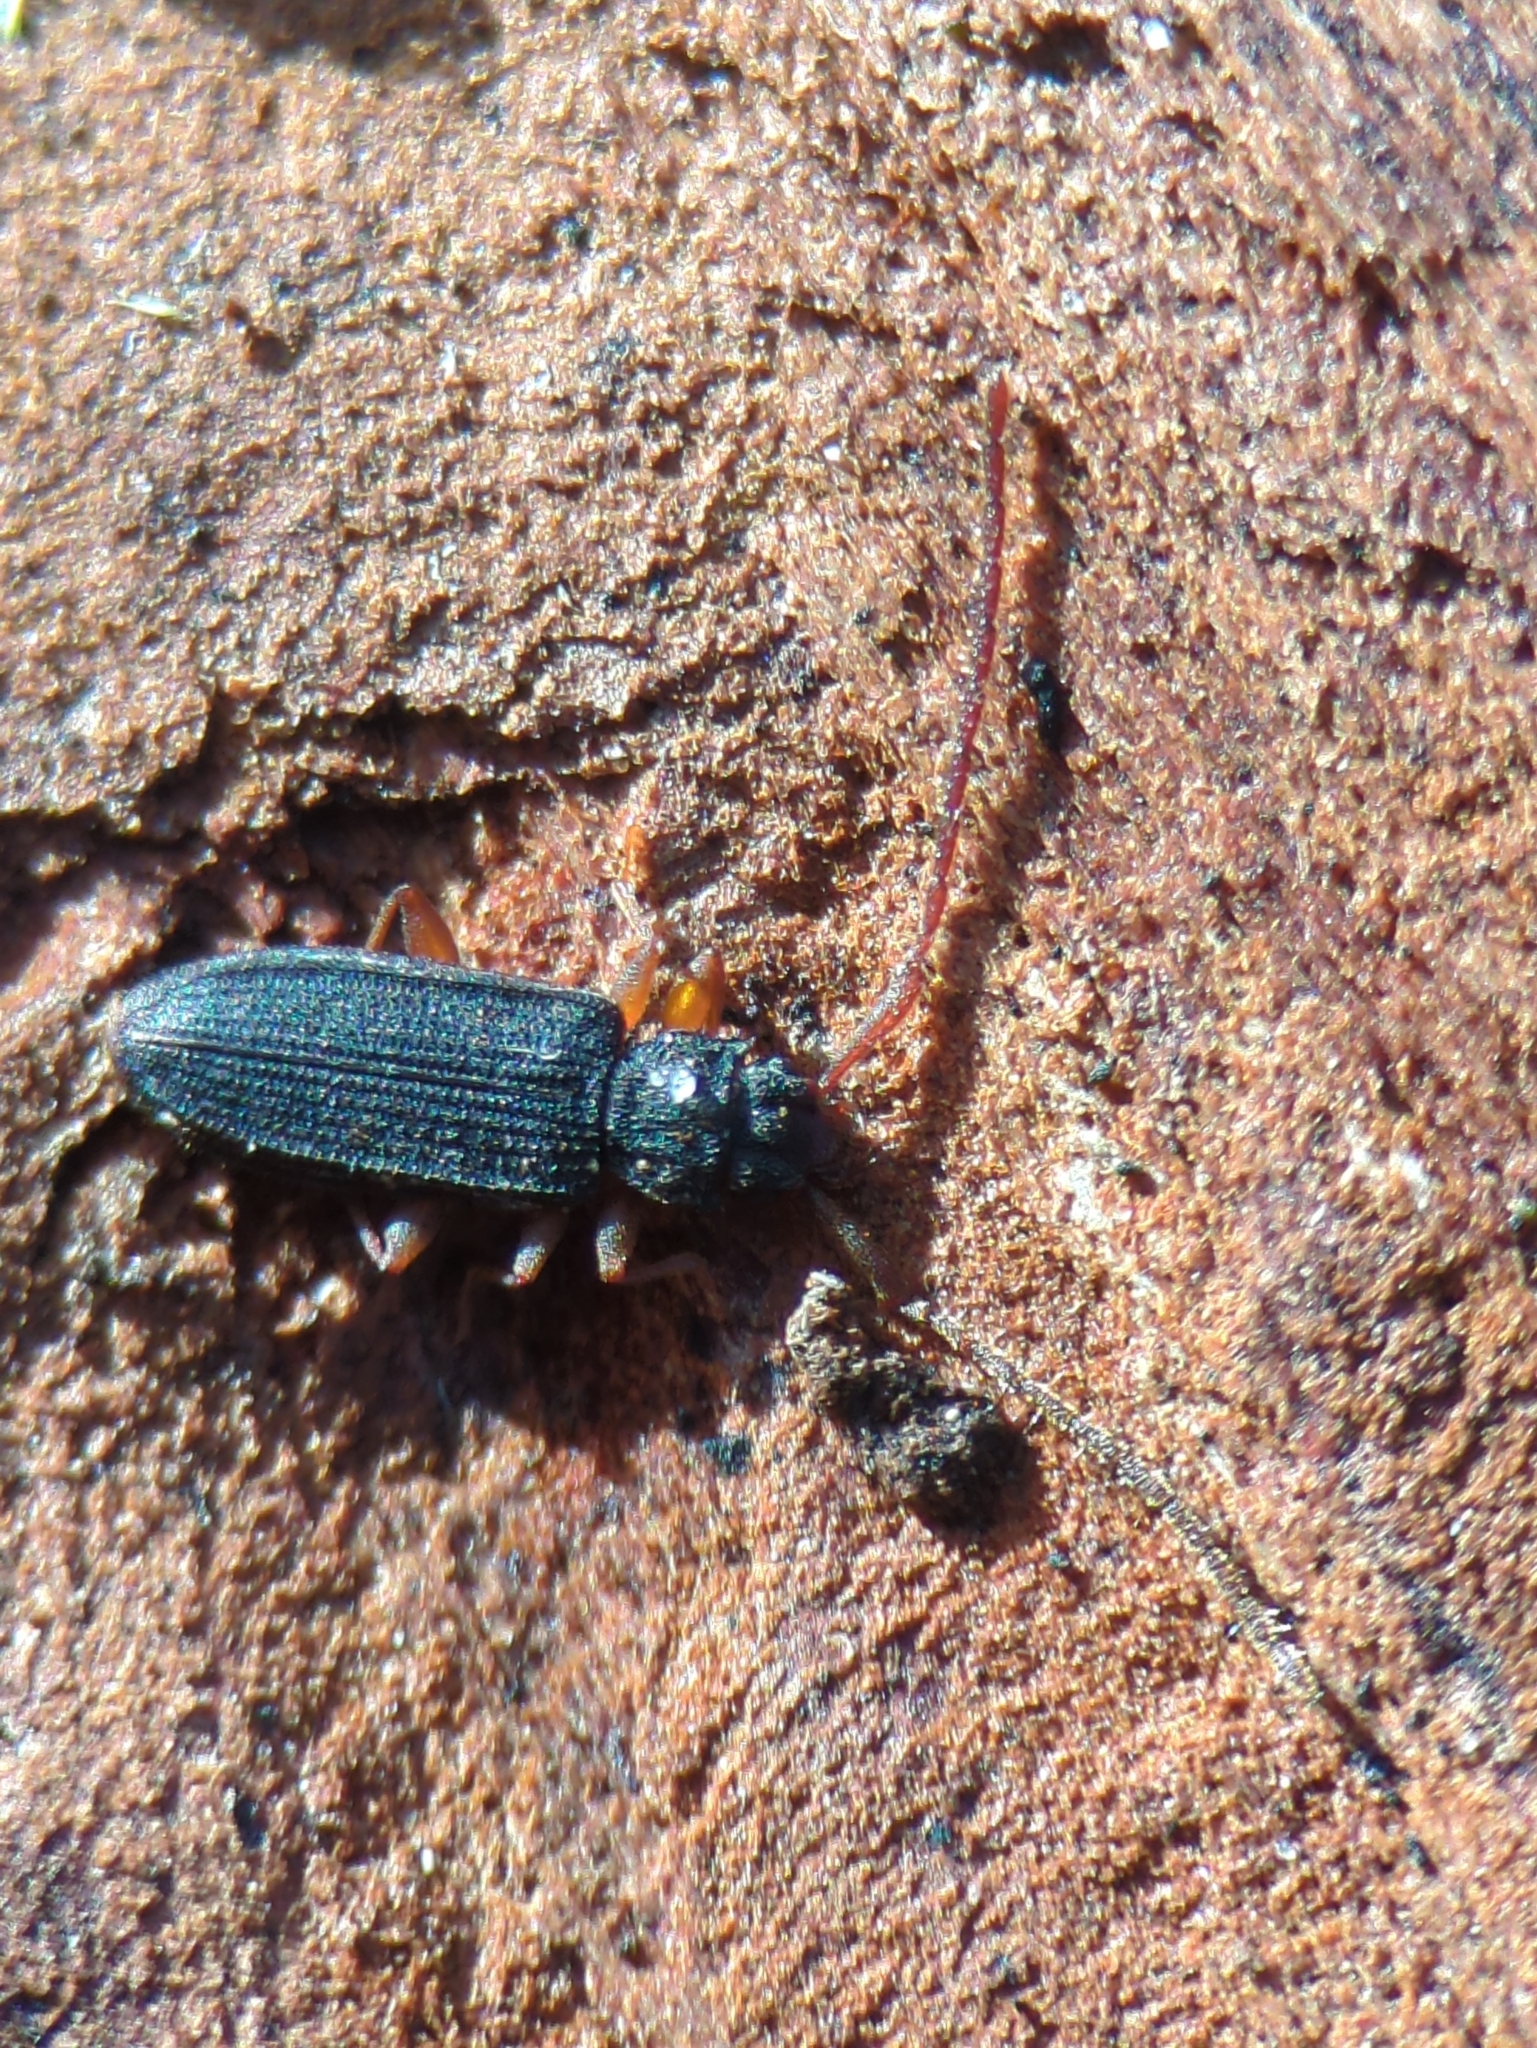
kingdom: Animalia
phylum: Arthropoda
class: Insecta
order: Coleoptera
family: Silvanidae
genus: Uleiota
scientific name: Uleiota planatus
